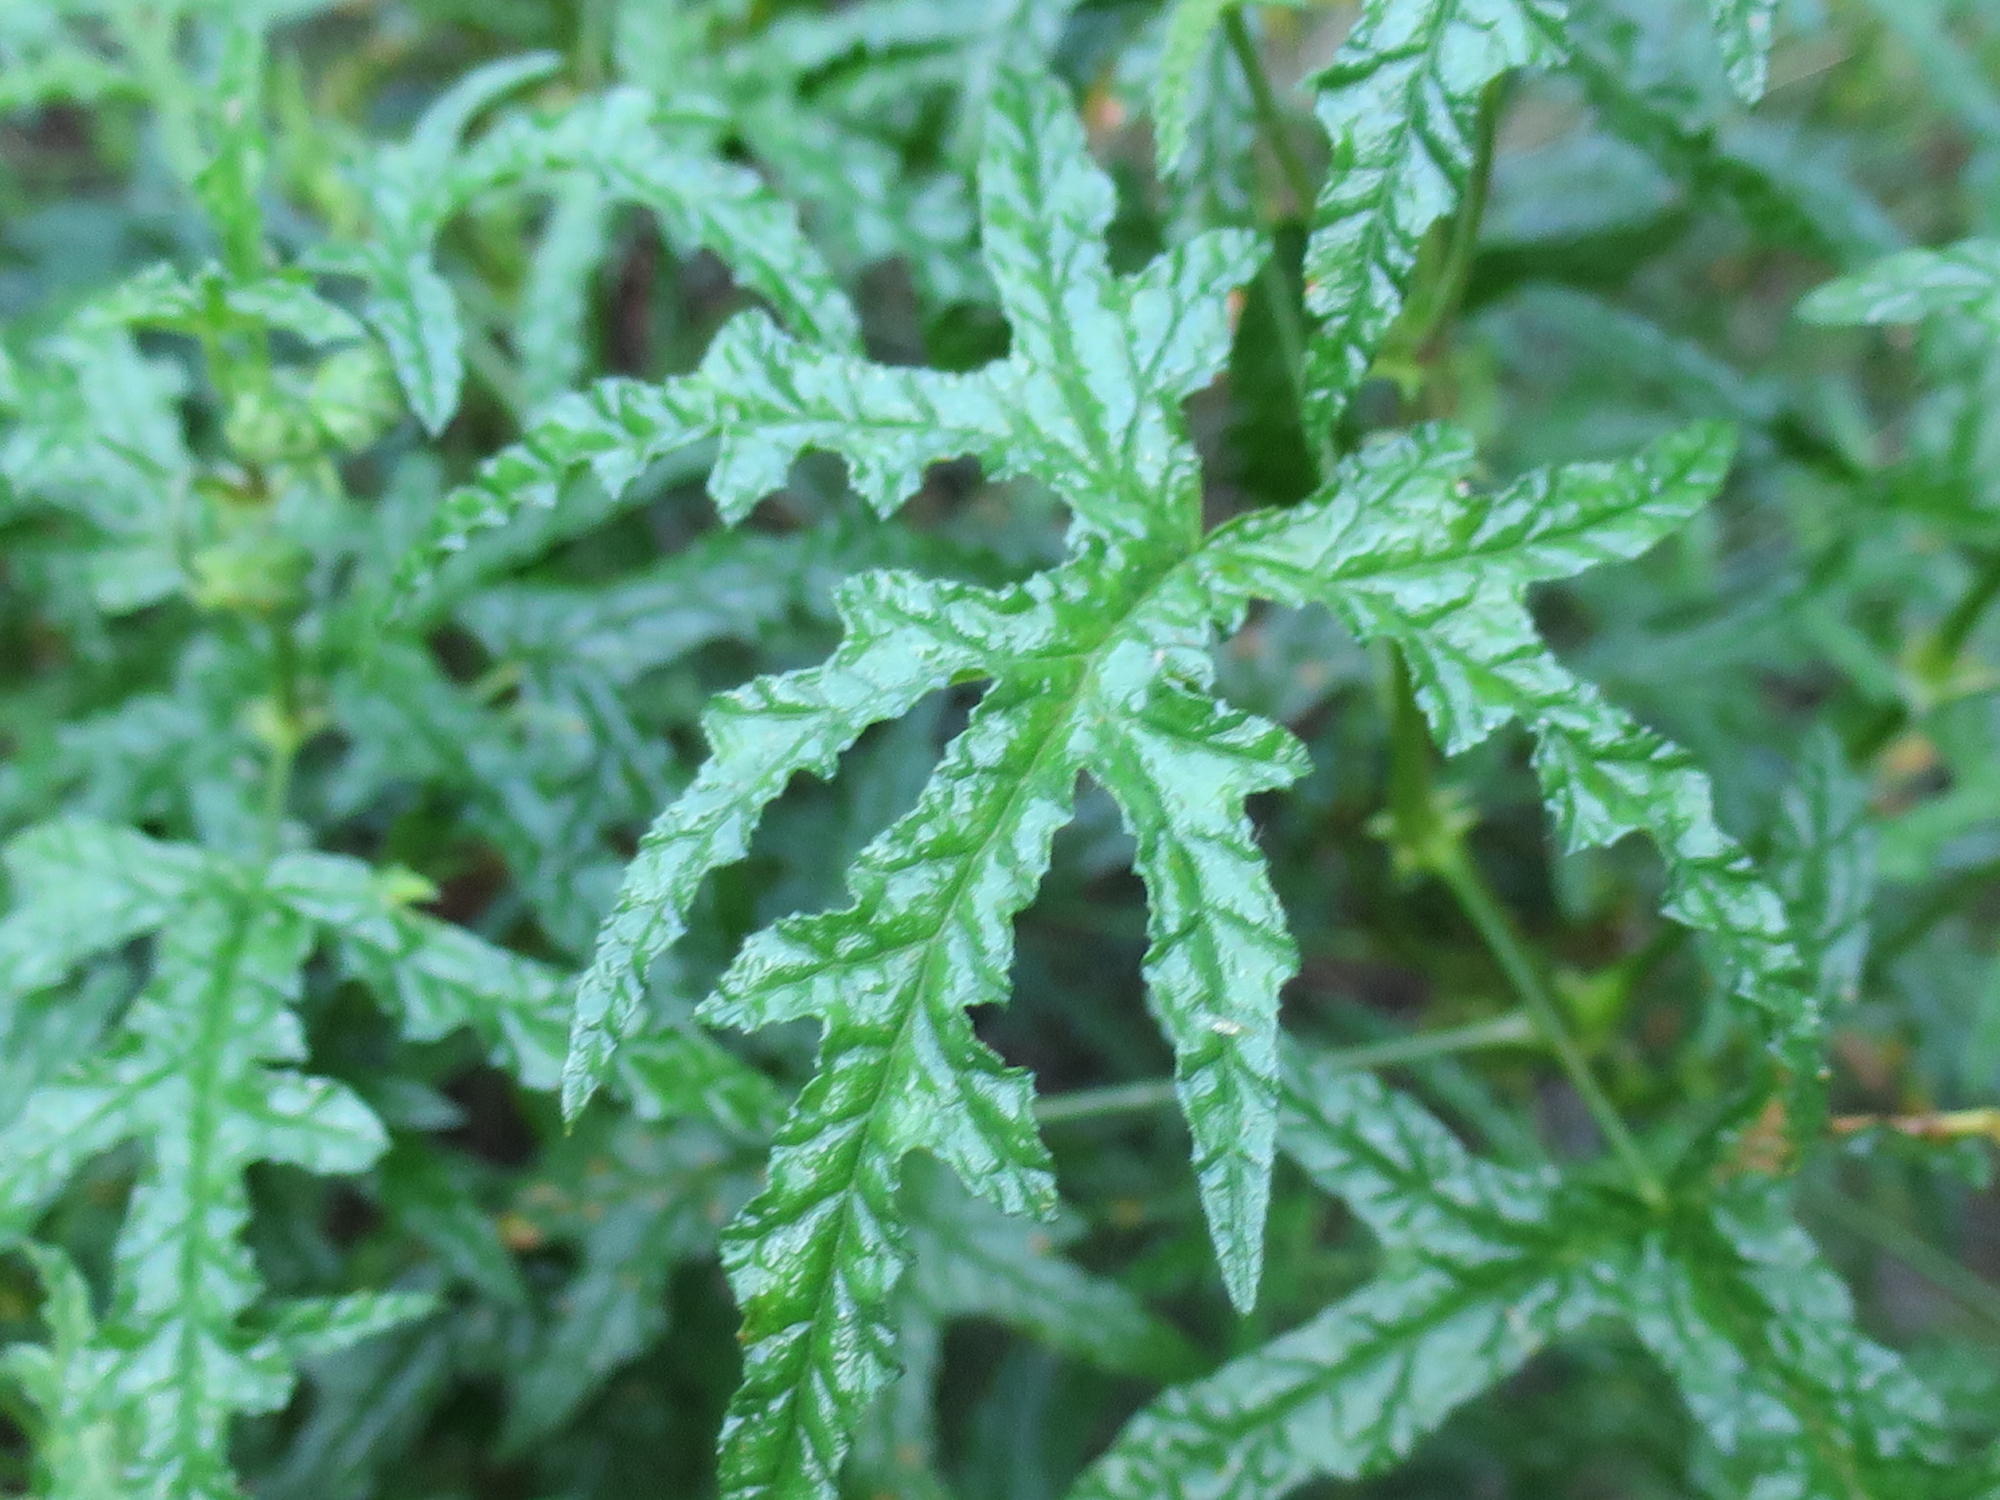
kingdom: Plantae
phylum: Tracheophyta
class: Magnoliopsida
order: Geraniales
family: Geraniaceae
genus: Pelargonium
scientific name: Pelargonium glutinosum
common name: Pheasant-foot geranium
